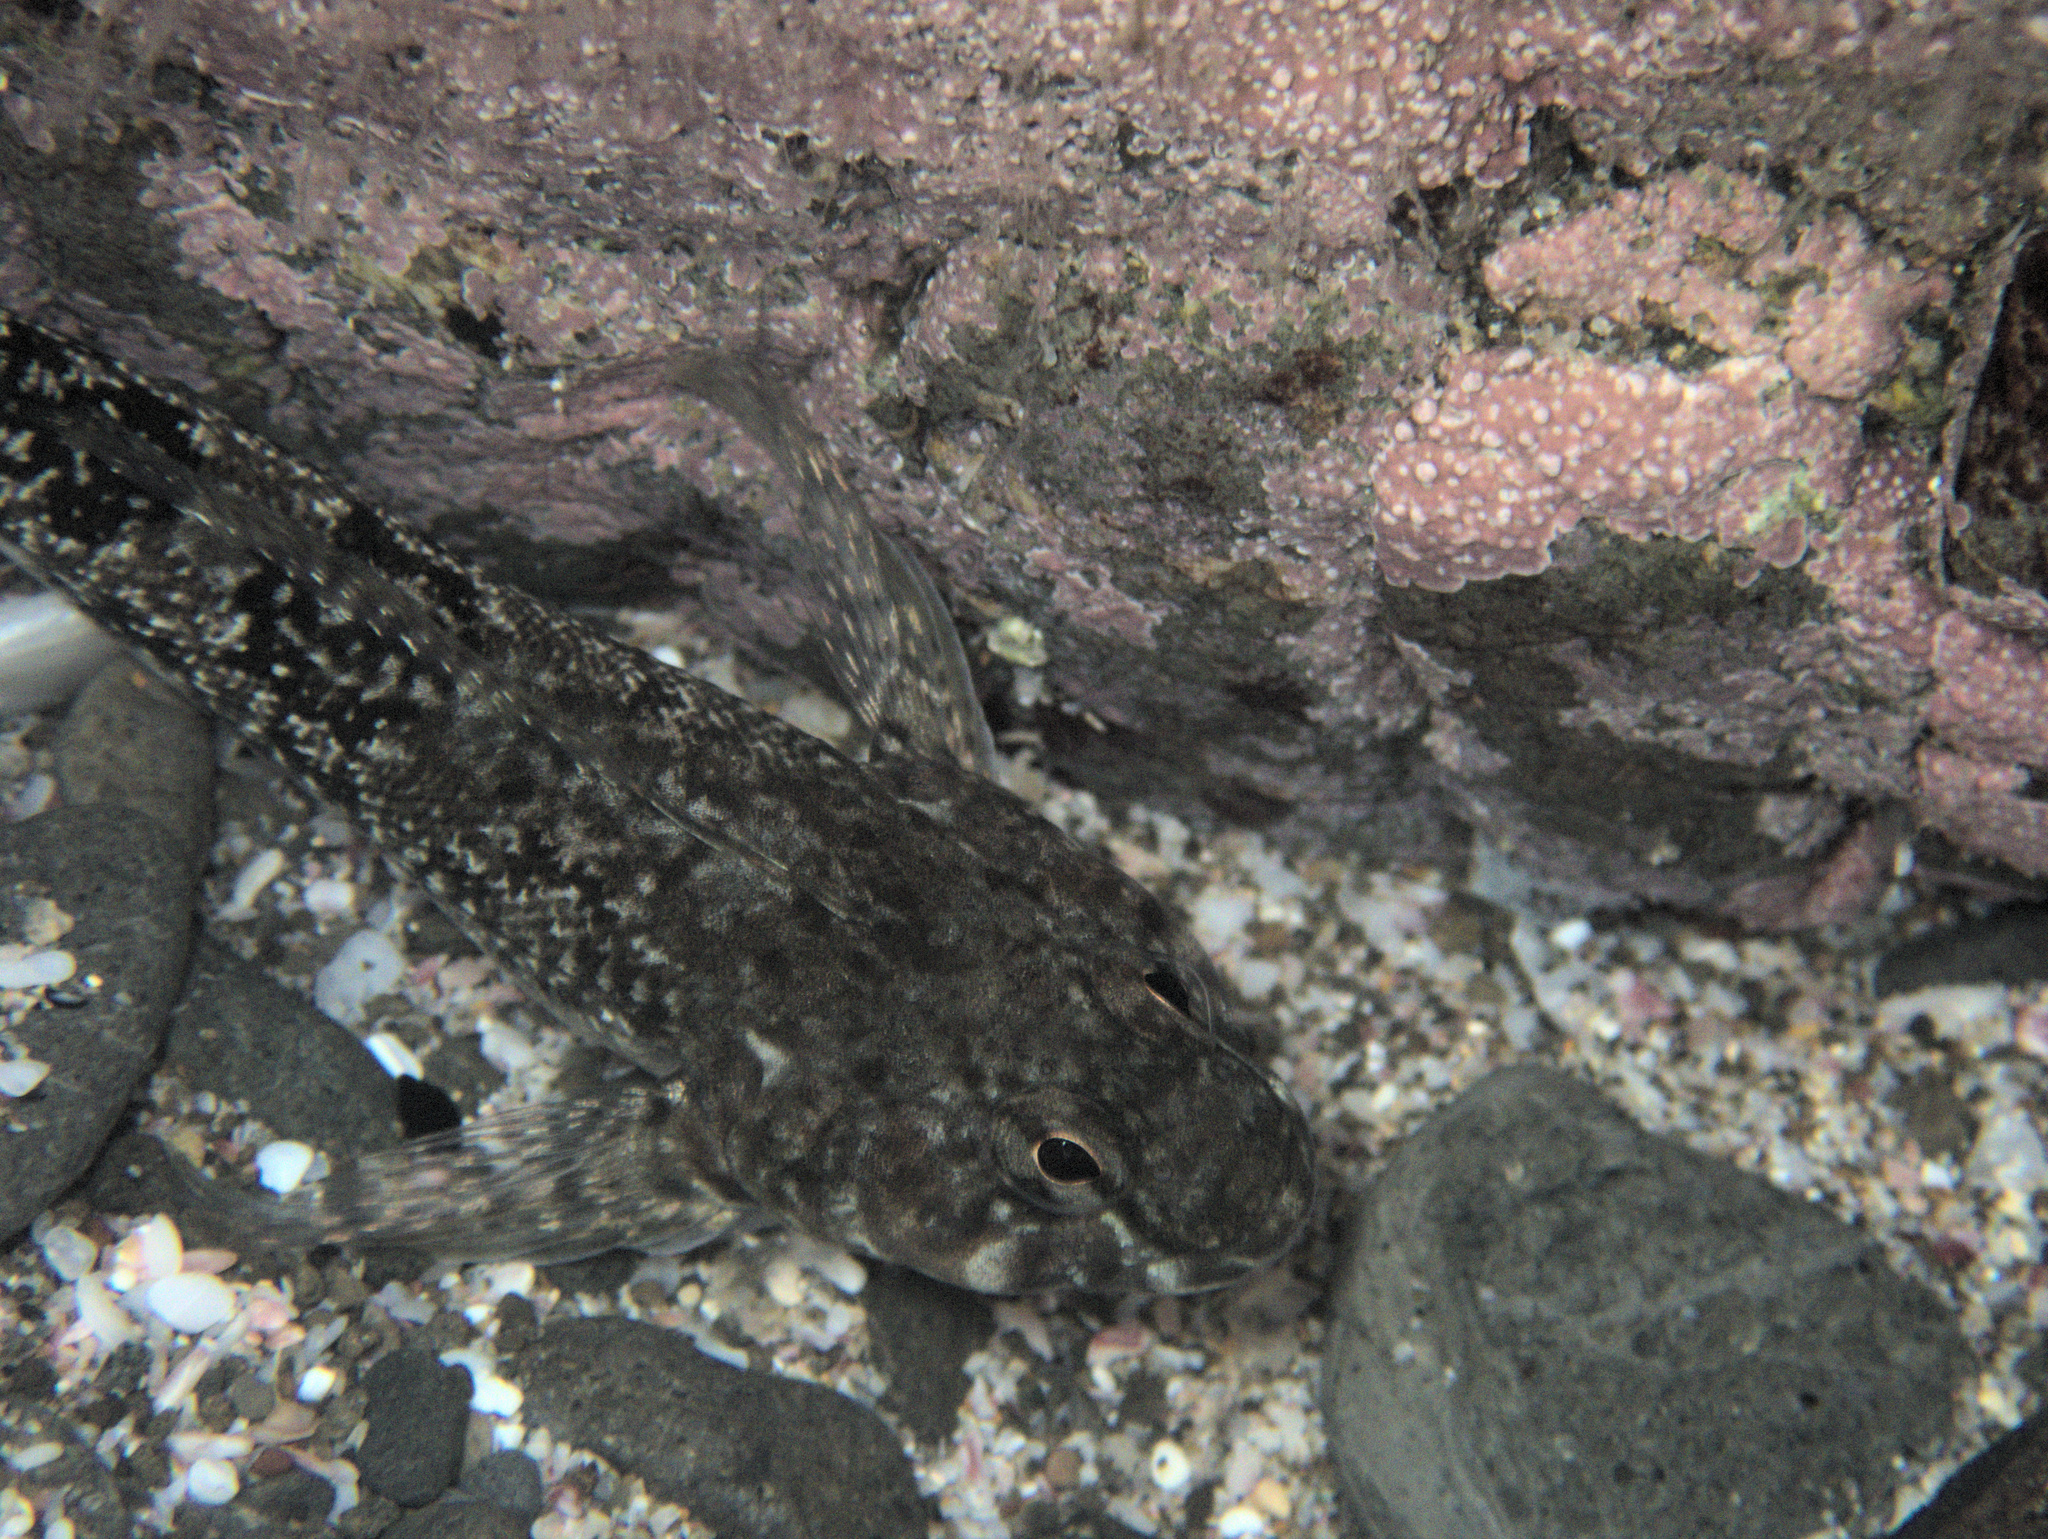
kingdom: Animalia
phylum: Chordata
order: Perciformes
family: Tripterygiidae
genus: Bellapiscis
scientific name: Bellapiscis medius
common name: Twister
